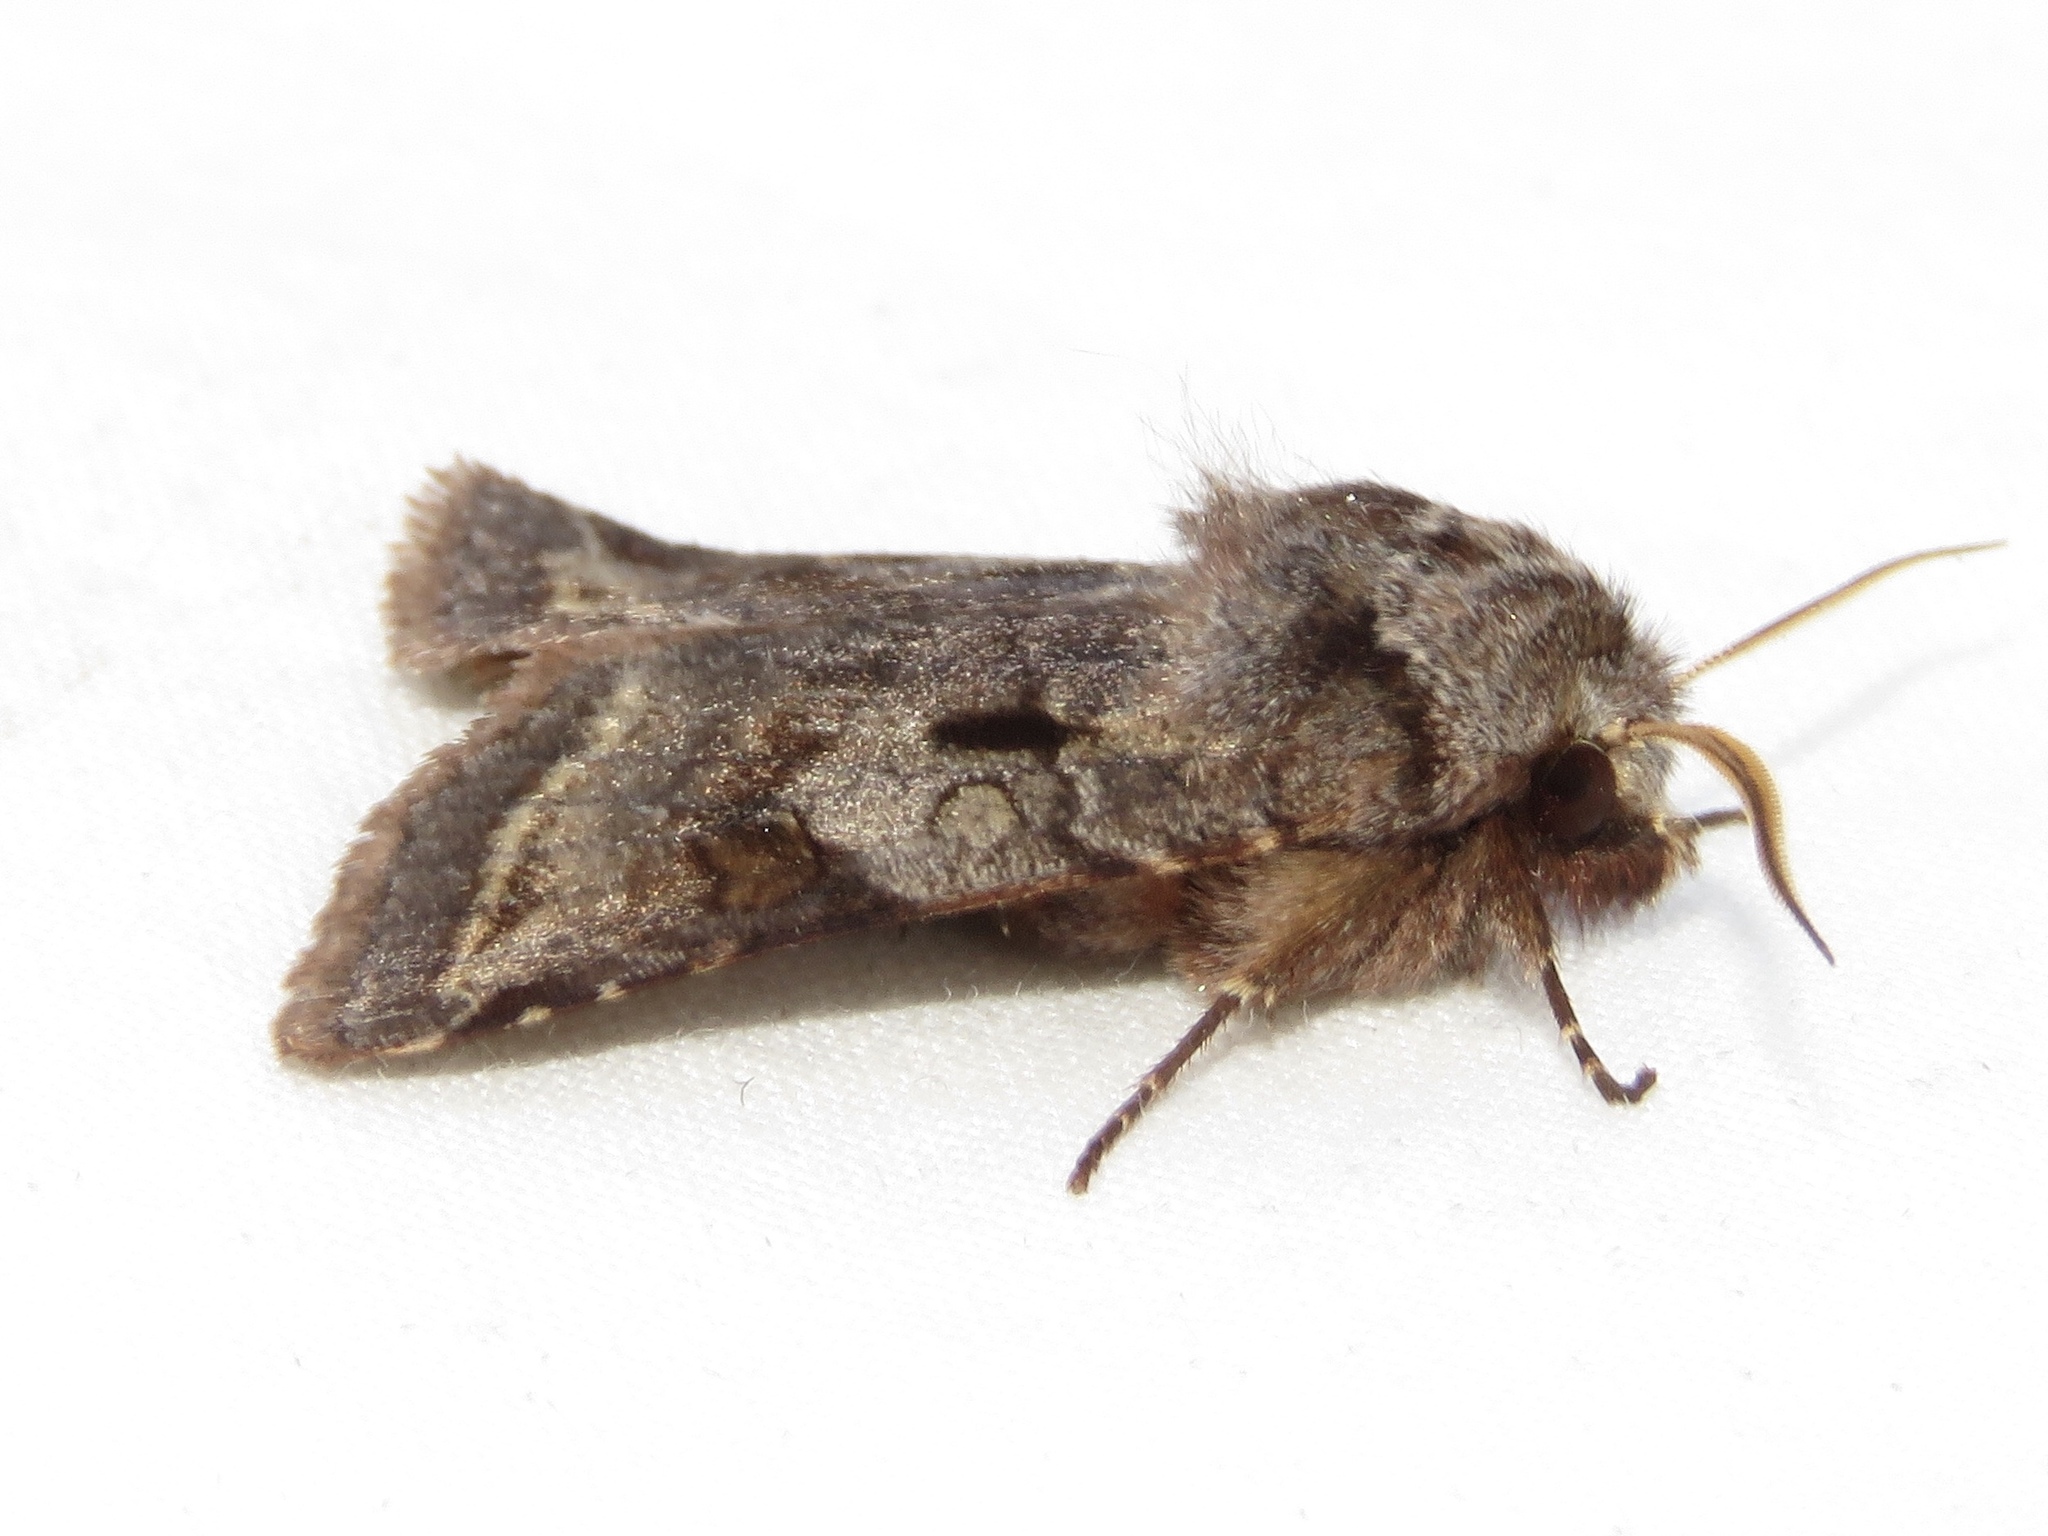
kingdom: Animalia
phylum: Arthropoda
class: Insecta
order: Lepidoptera
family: Noctuidae
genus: Cerastis
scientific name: Cerastis salicarum
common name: Willow dart
